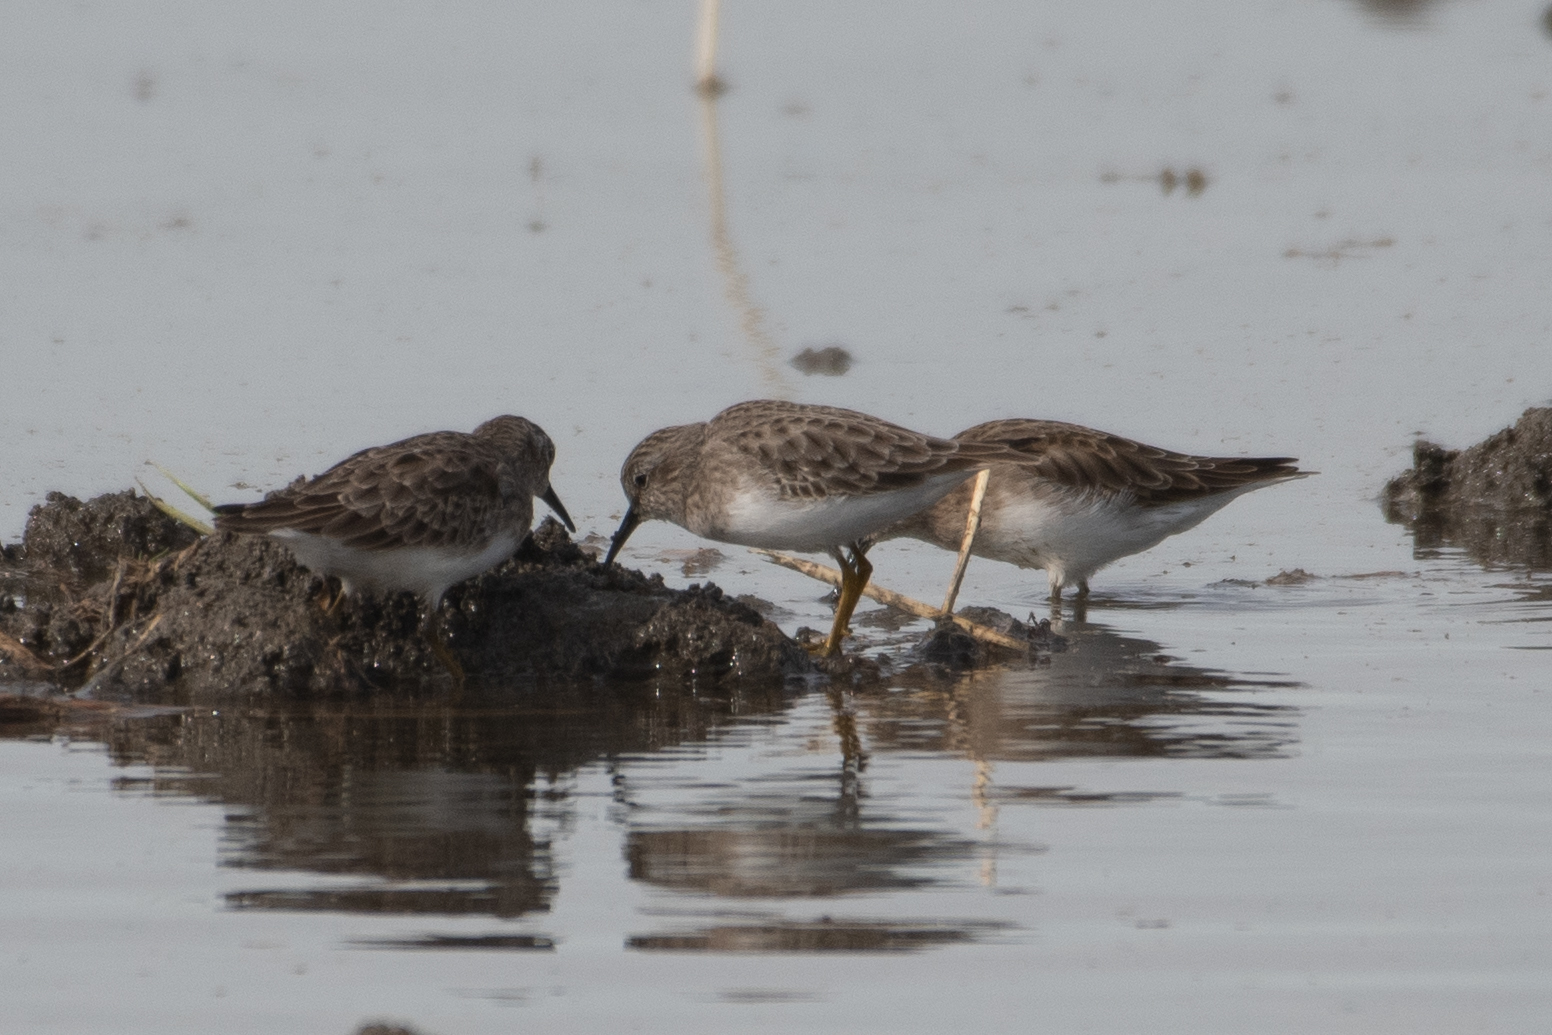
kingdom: Animalia
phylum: Chordata
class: Aves
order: Charadriiformes
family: Scolopacidae
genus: Calidris
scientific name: Calidris minutilla
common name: Least sandpiper
